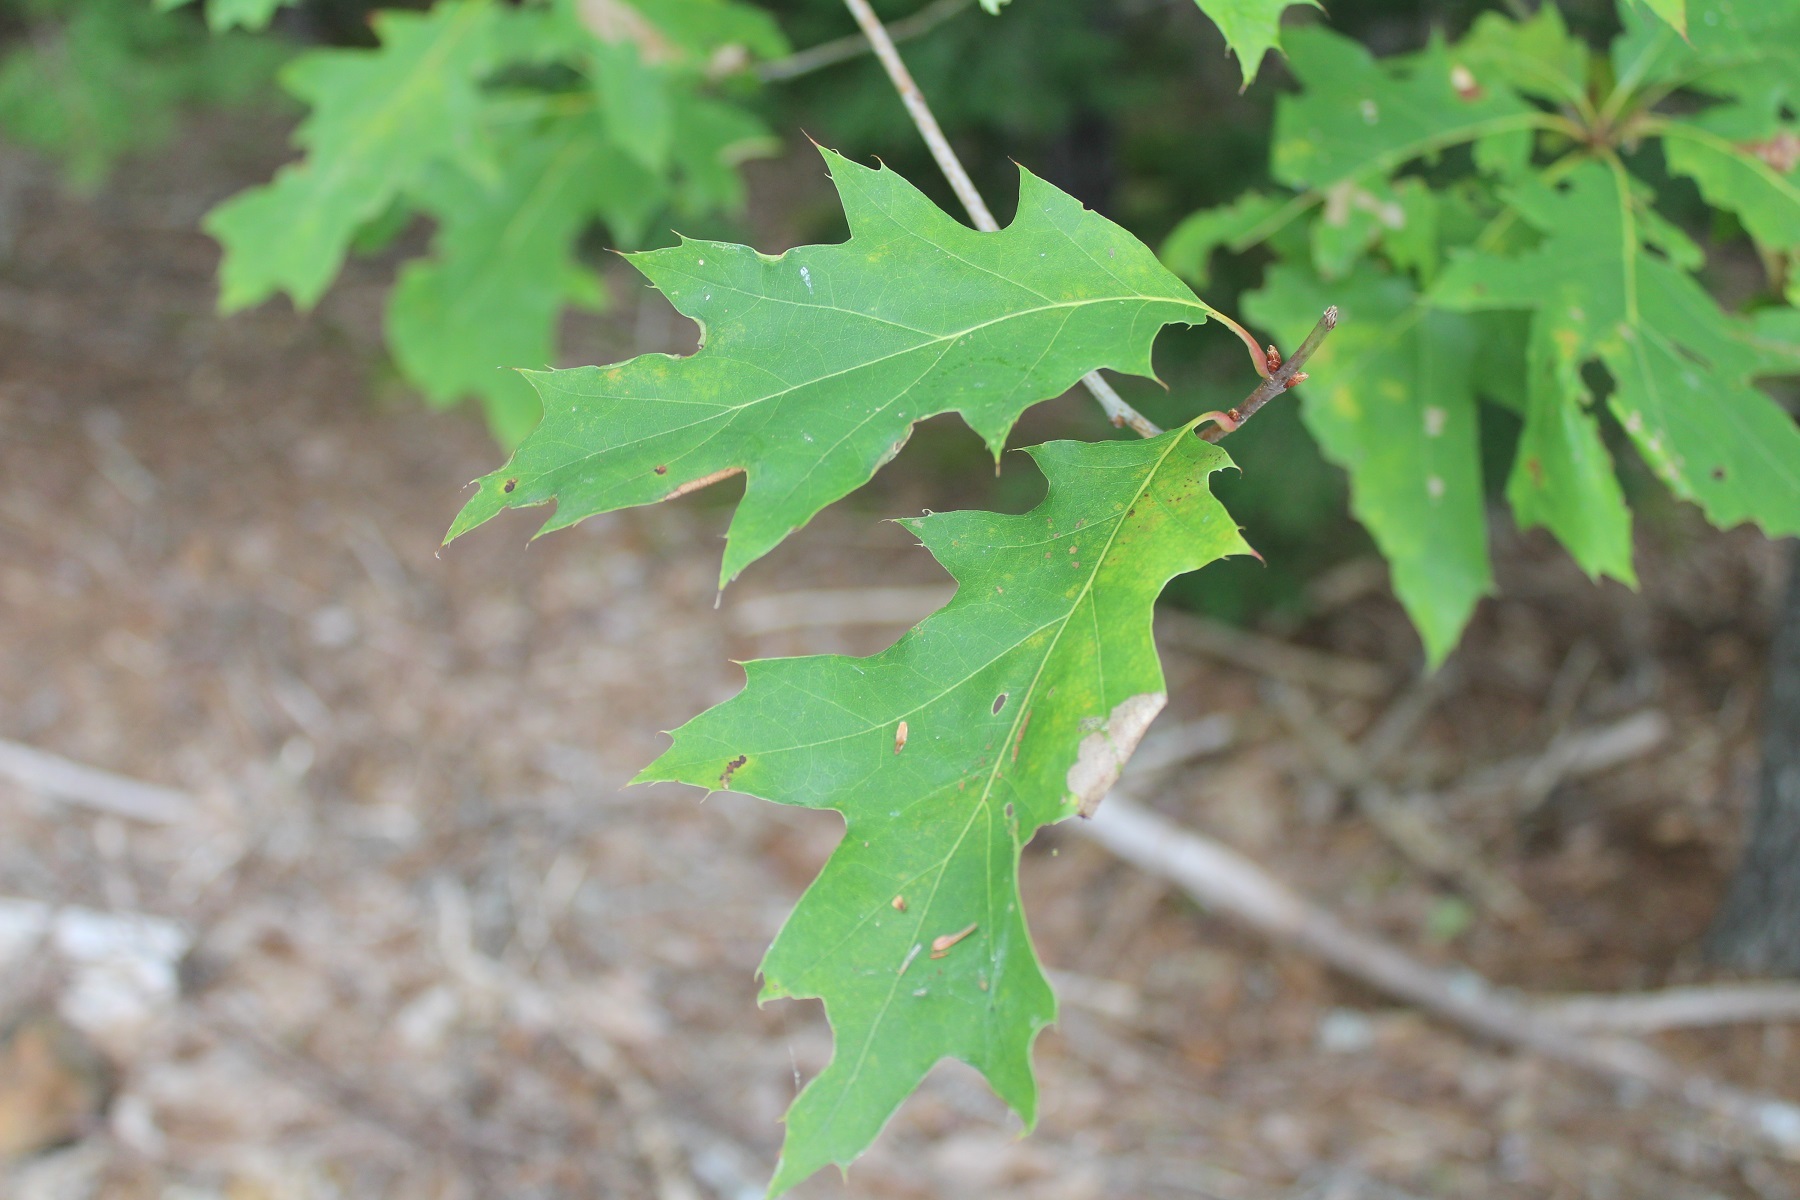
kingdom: Plantae
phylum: Tracheophyta
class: Magnoliopsida
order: Fagales
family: Fagaceae
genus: Quercus
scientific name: Quercus rubra
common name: Red oak
